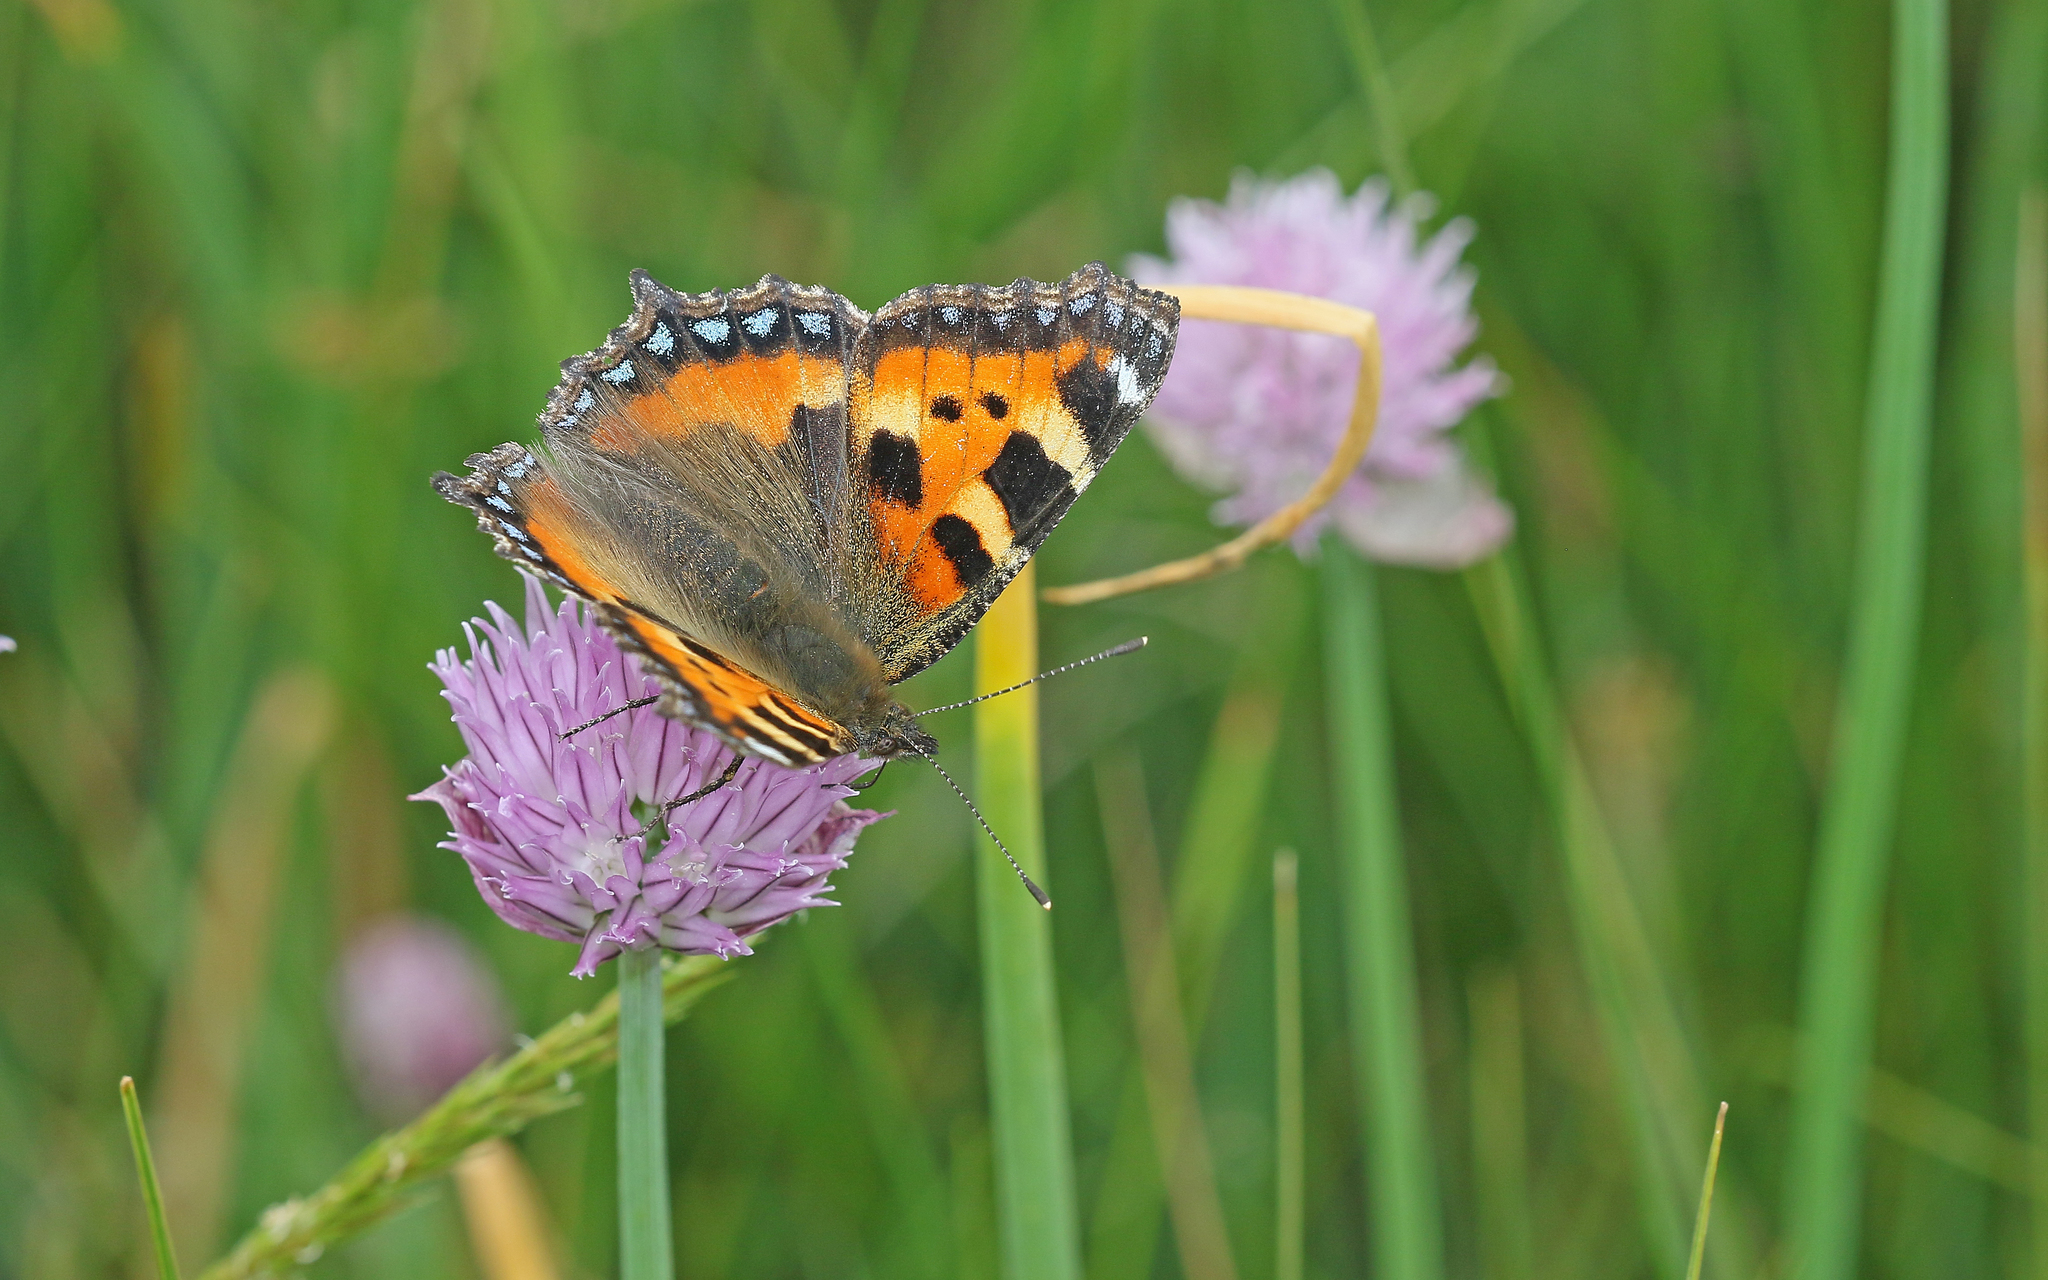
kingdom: Animalia
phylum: Arthropoda
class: Insecta
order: Lepidoptera
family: Nymphalidae
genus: Aglais
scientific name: Aglais urticae
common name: Small tortoiseshell
